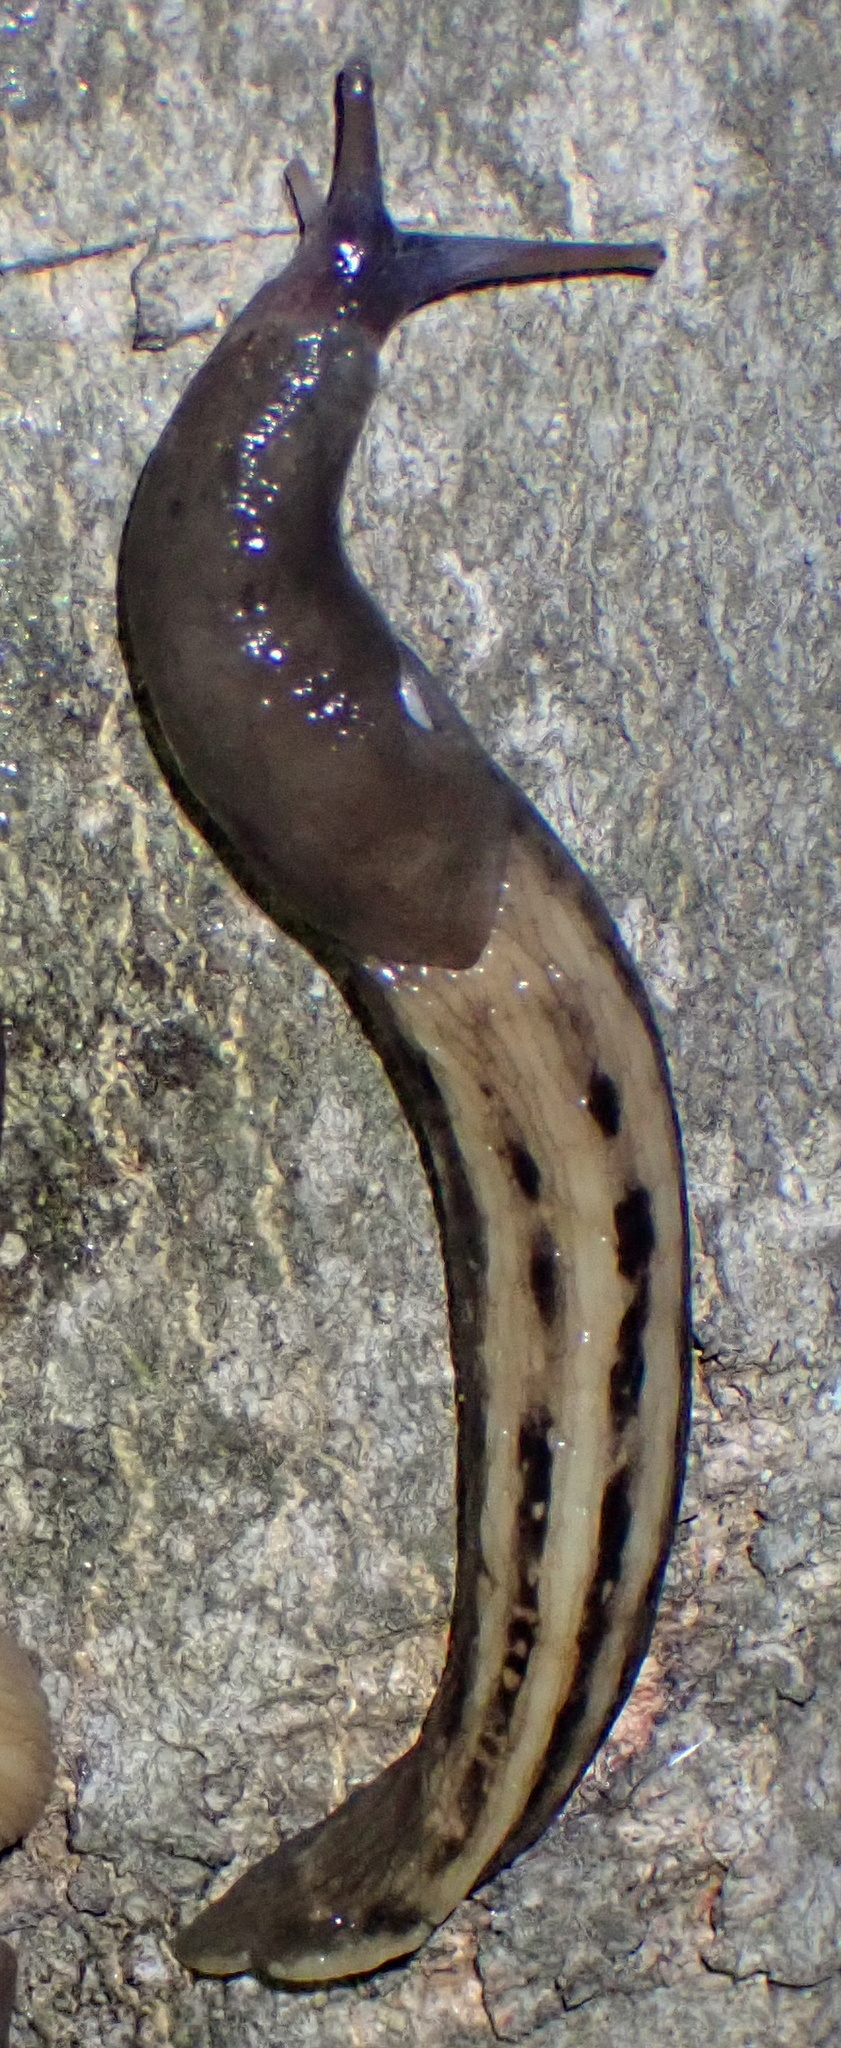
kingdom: Animalia
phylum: Mollusca
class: Gastropoda
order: Stylommatophora
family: Limacidae
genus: Limax
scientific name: Limax cinereoniger
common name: Ash-black slug
